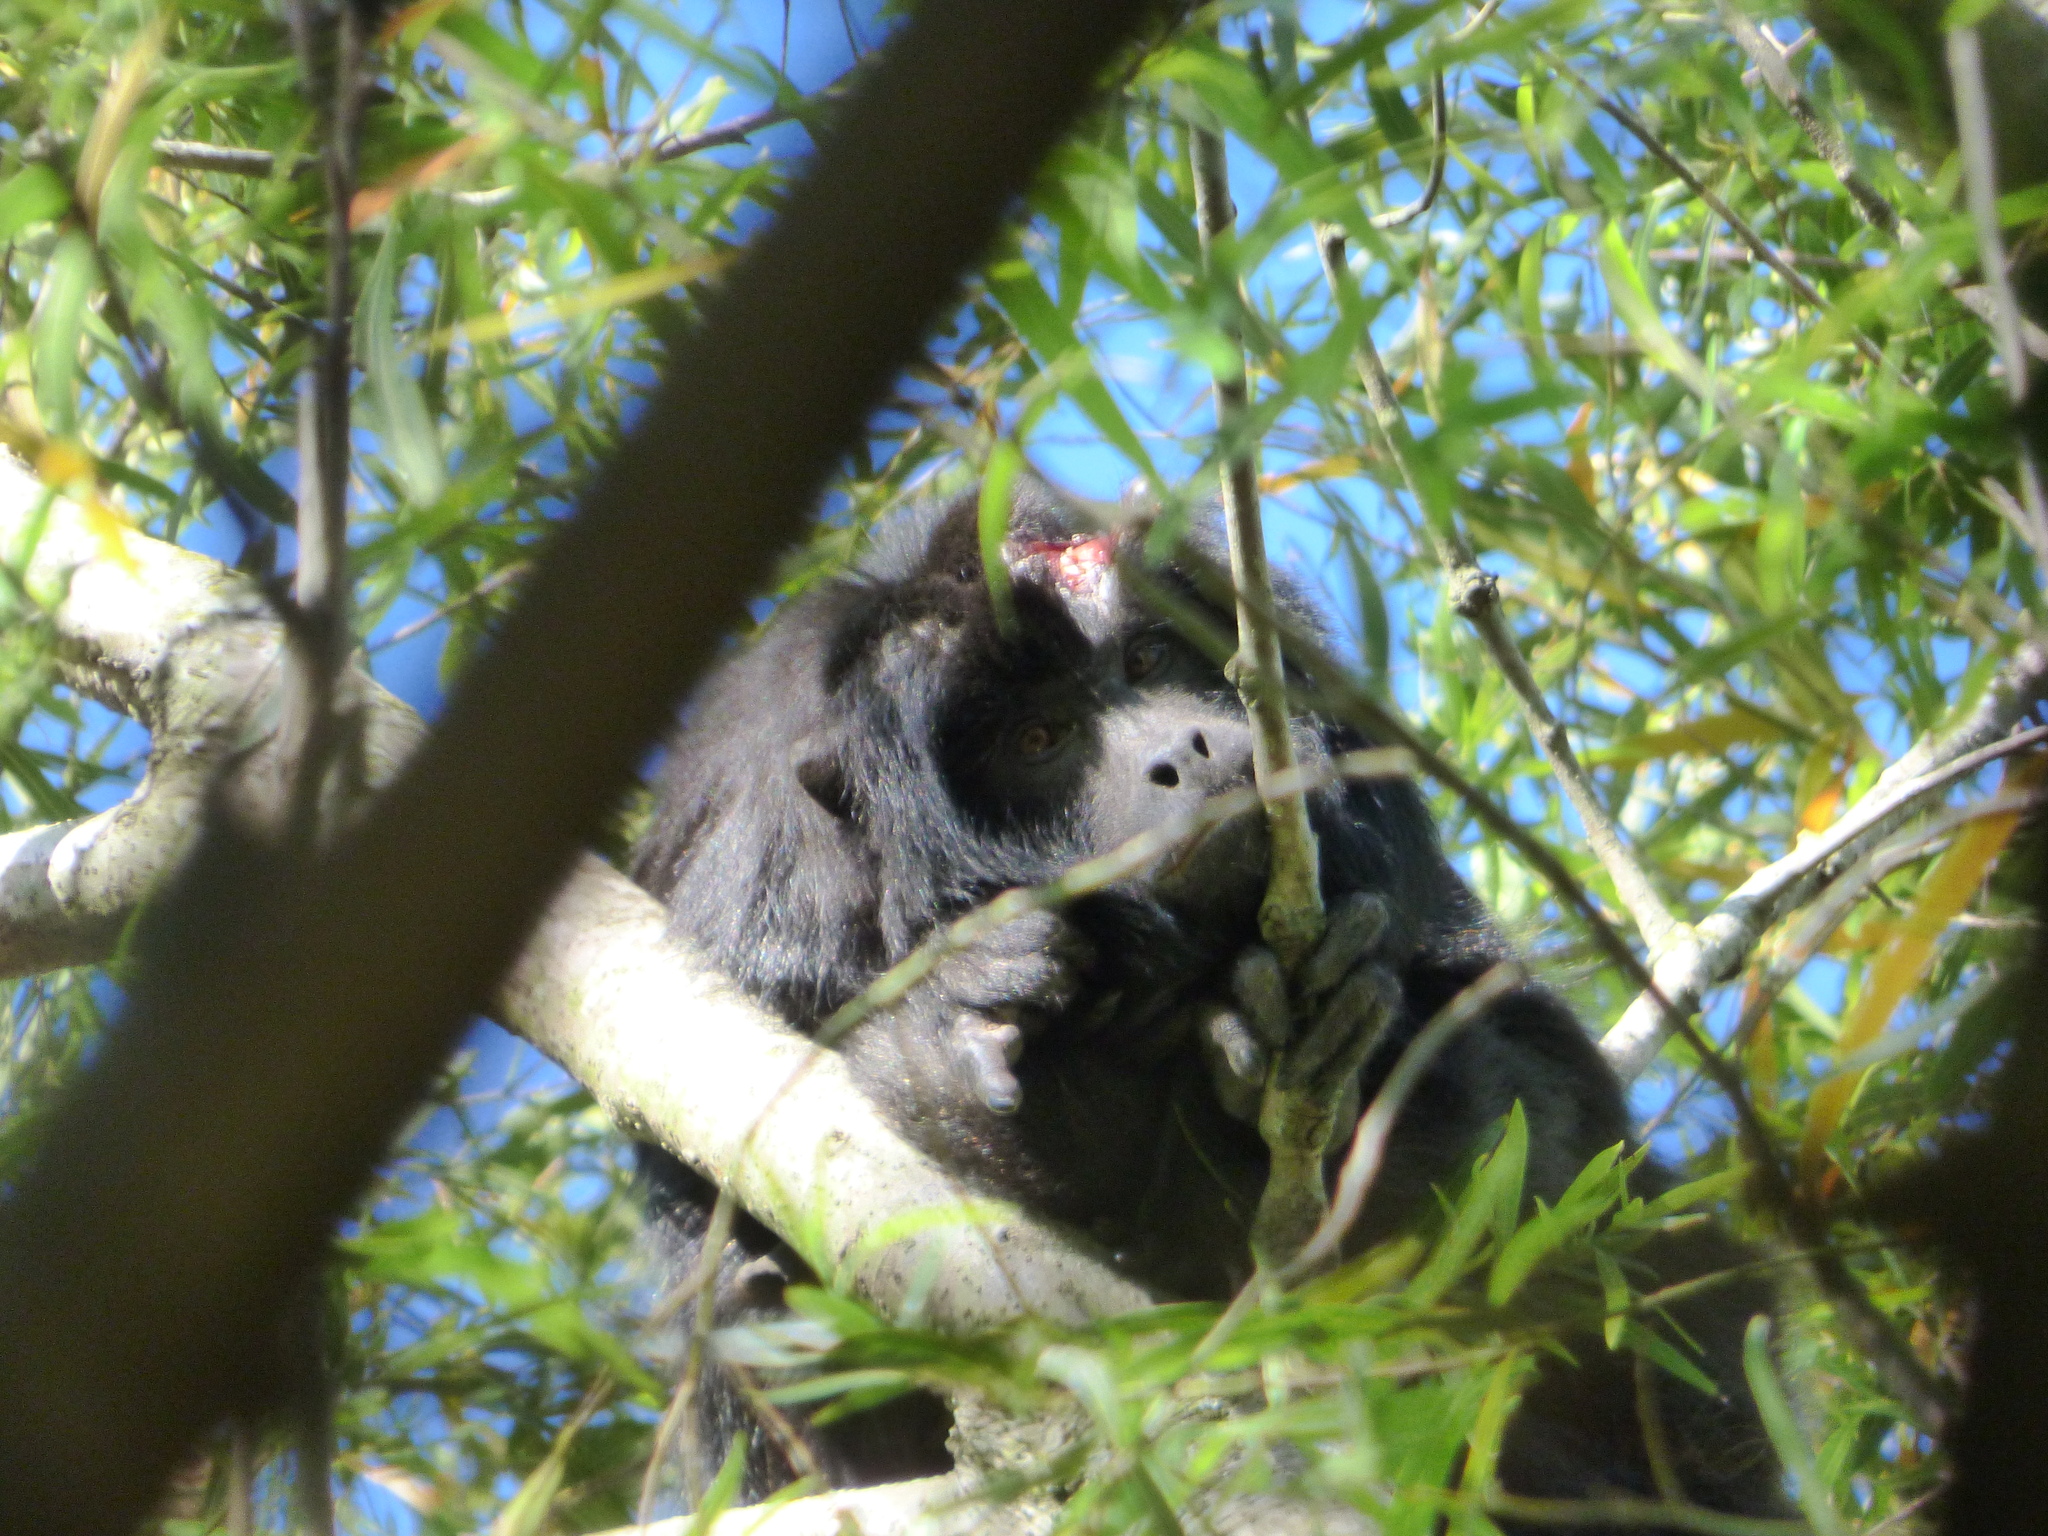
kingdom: Animalia
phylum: Chordata
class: Mammalia
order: Primates
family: Atelidae
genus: Alouatta
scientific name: Alouatta caraya
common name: Black howler
